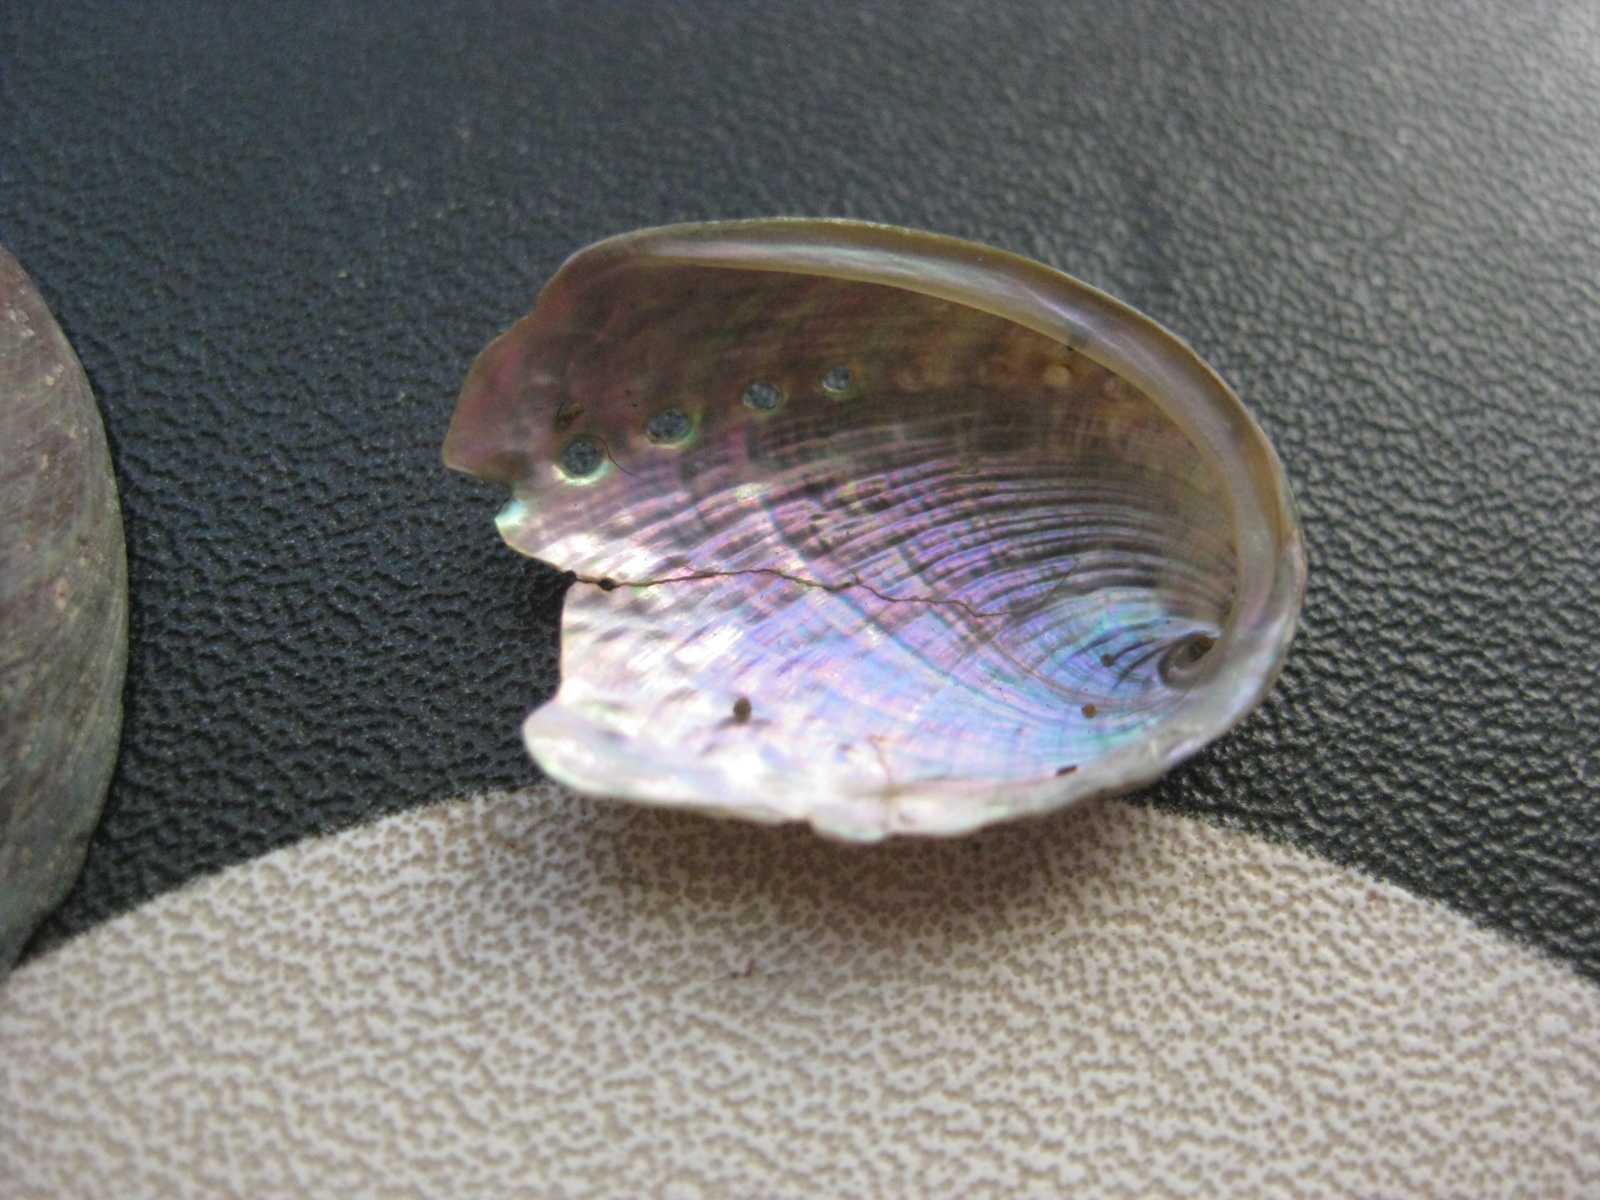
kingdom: Animalia
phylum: Mollusca
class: Gastropoda
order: Lepetellida
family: Haliotidae
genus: Haliotis
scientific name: Haliotis virginea
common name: Whitefoot paua
